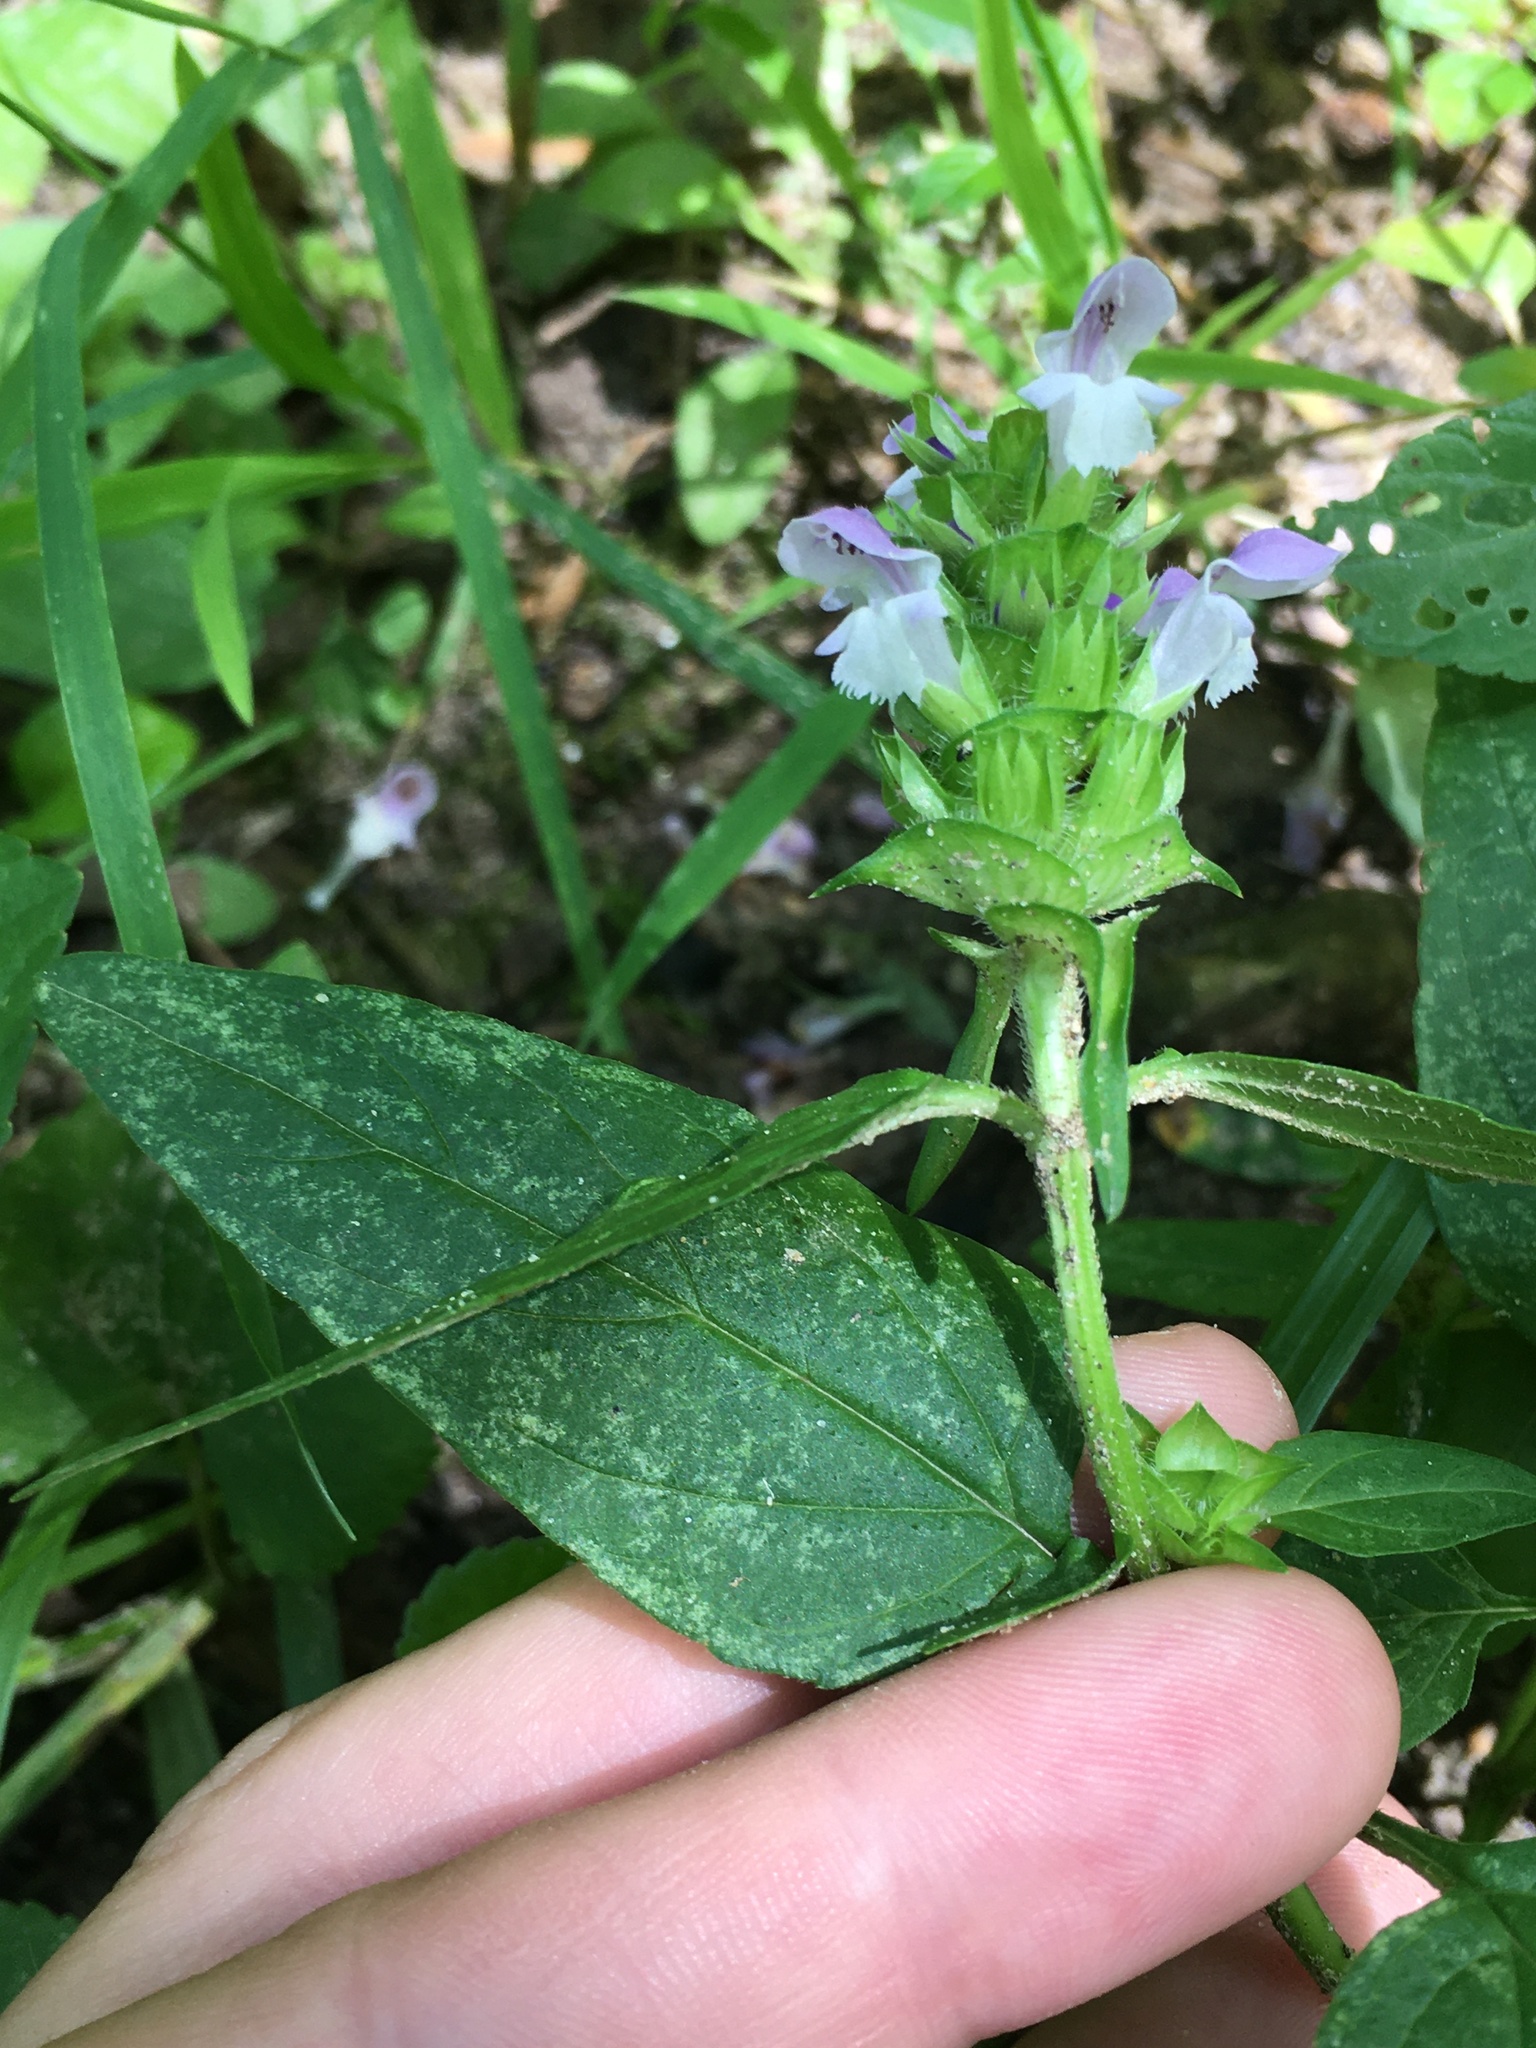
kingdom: Plantae
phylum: Tracheophyta
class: Magnoliopsida
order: Lamiales
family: Lamiaceae
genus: Prunella
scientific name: Prunella vulgaris
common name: Heal-all
